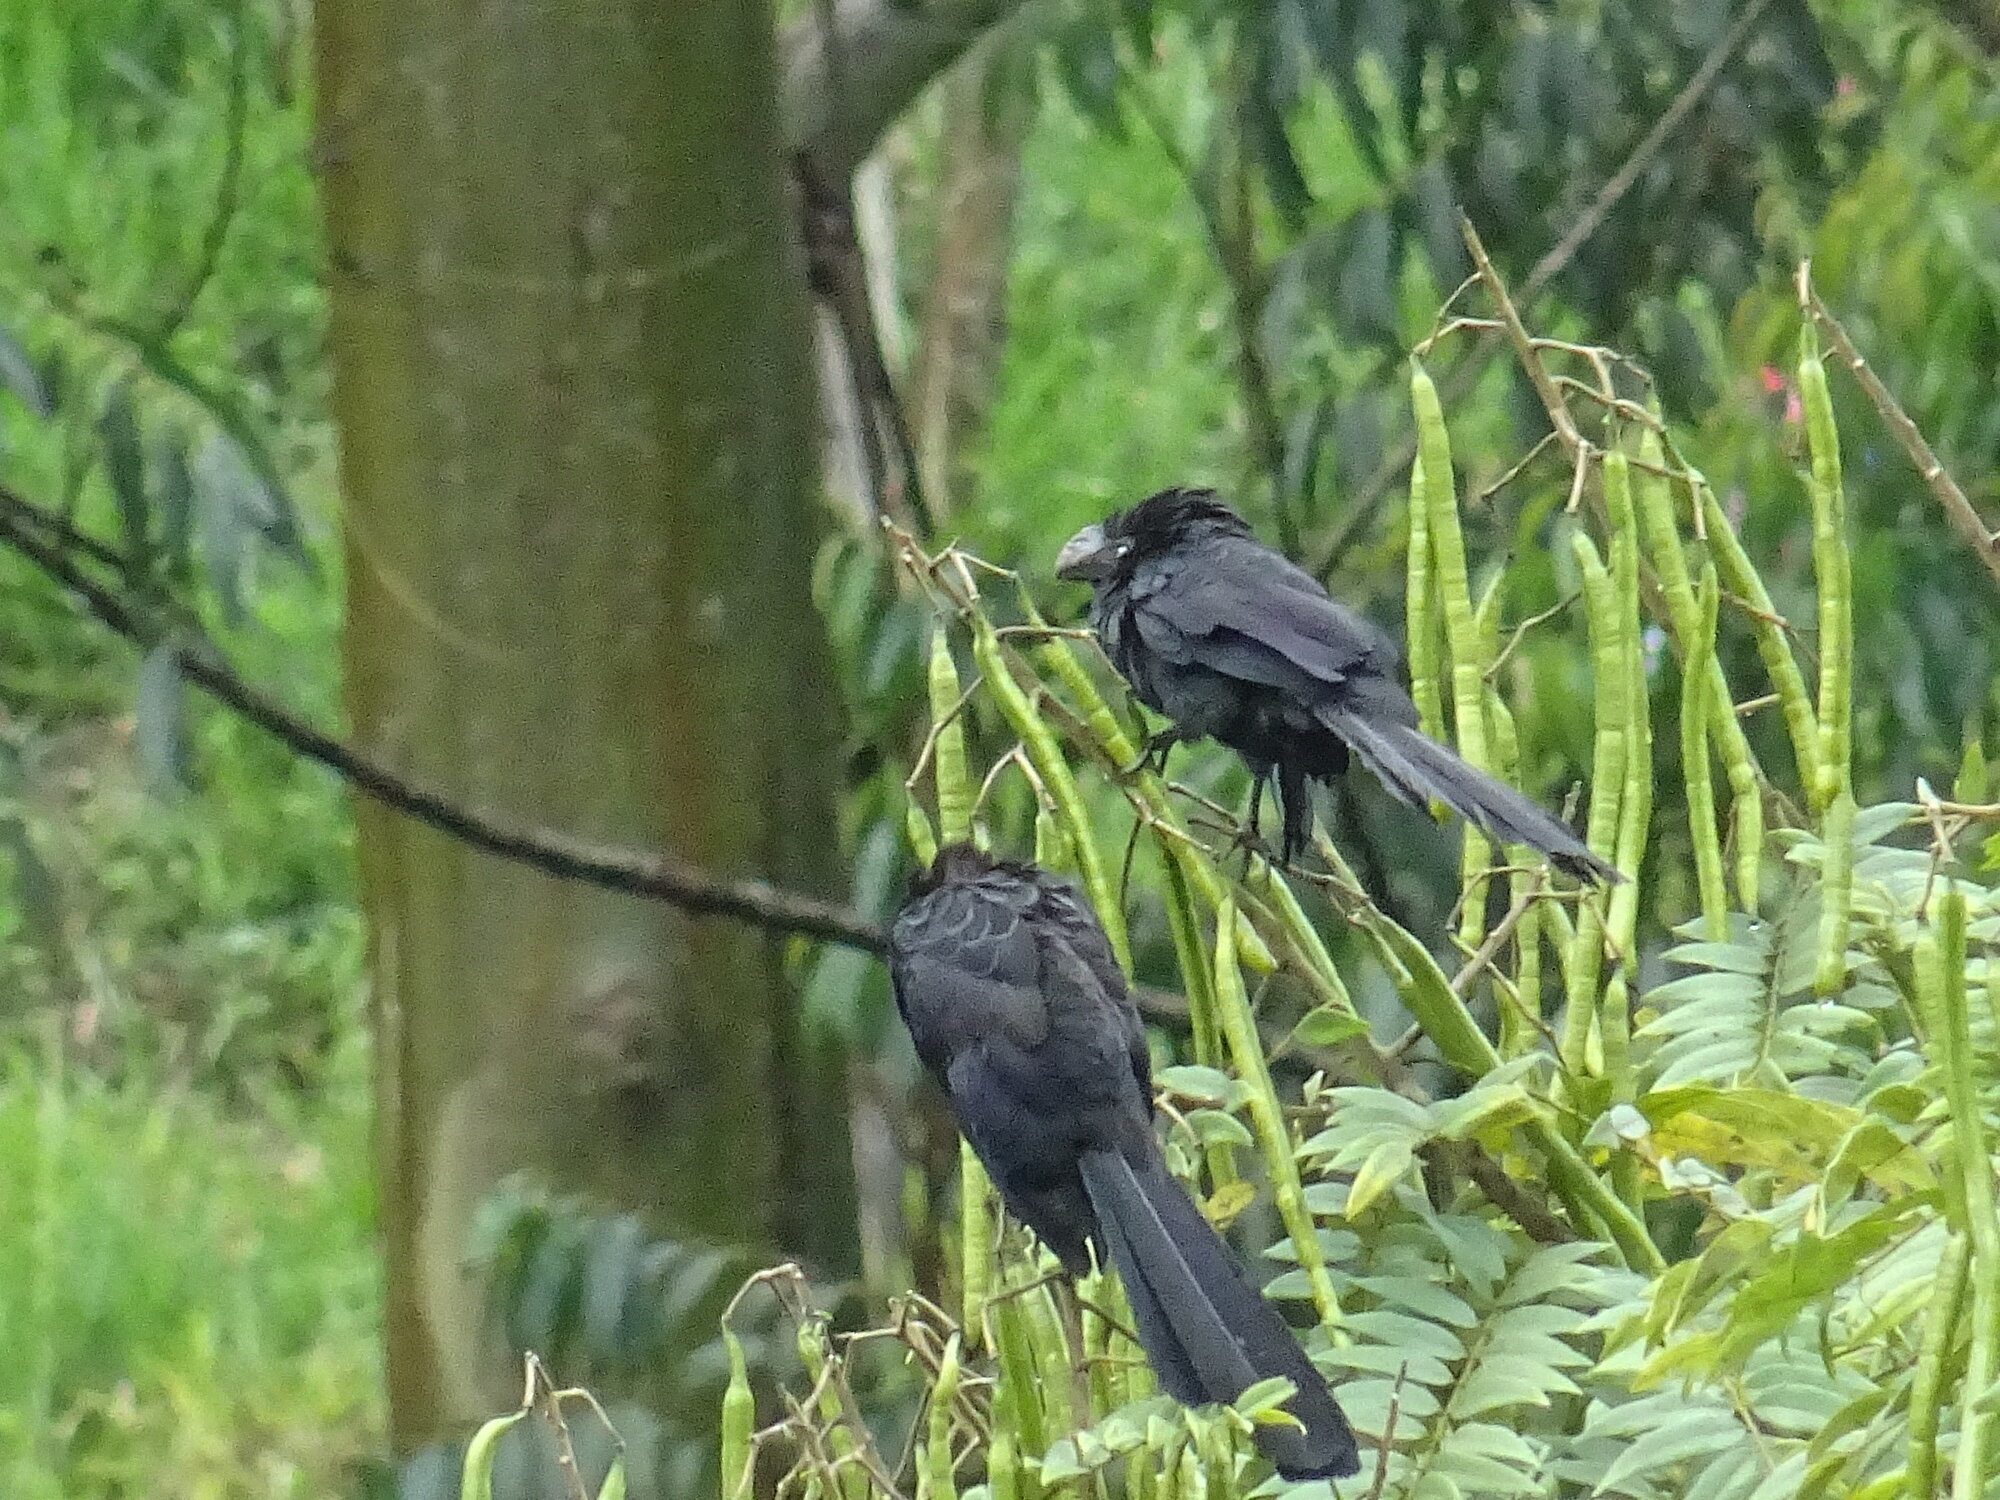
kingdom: Animalia
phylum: Chordata
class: Aves
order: Cuculiformes
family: Cuculidae
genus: Crotophaga
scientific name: Crotophaga ani
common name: Smooth-billed ani
